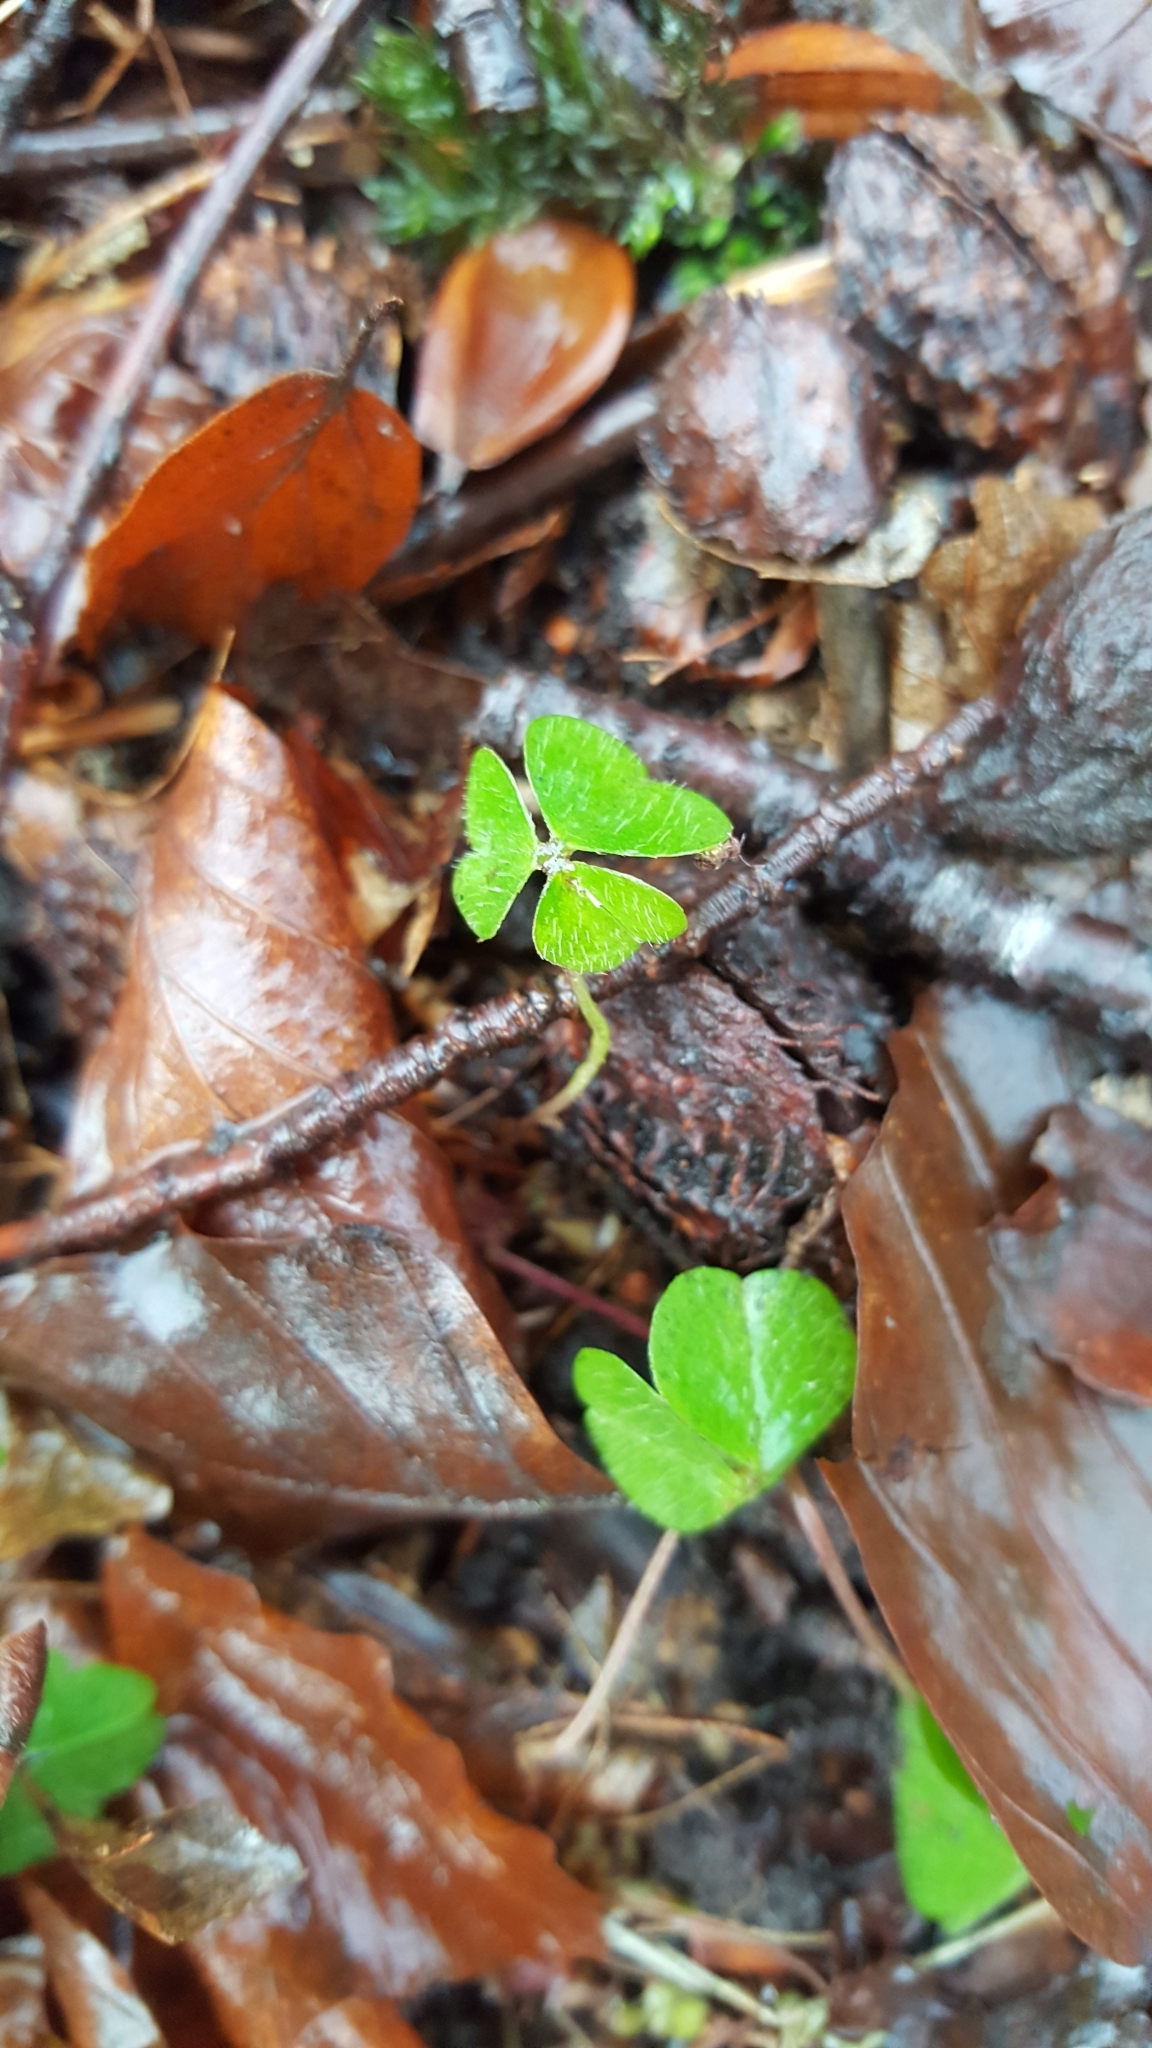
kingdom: Plantae
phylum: Tracheophyta
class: Magnoliopsida
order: Oxalidales
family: Oxalidaceae
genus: Oxalis
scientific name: Oxalis acetosella
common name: Wood-sorrel
